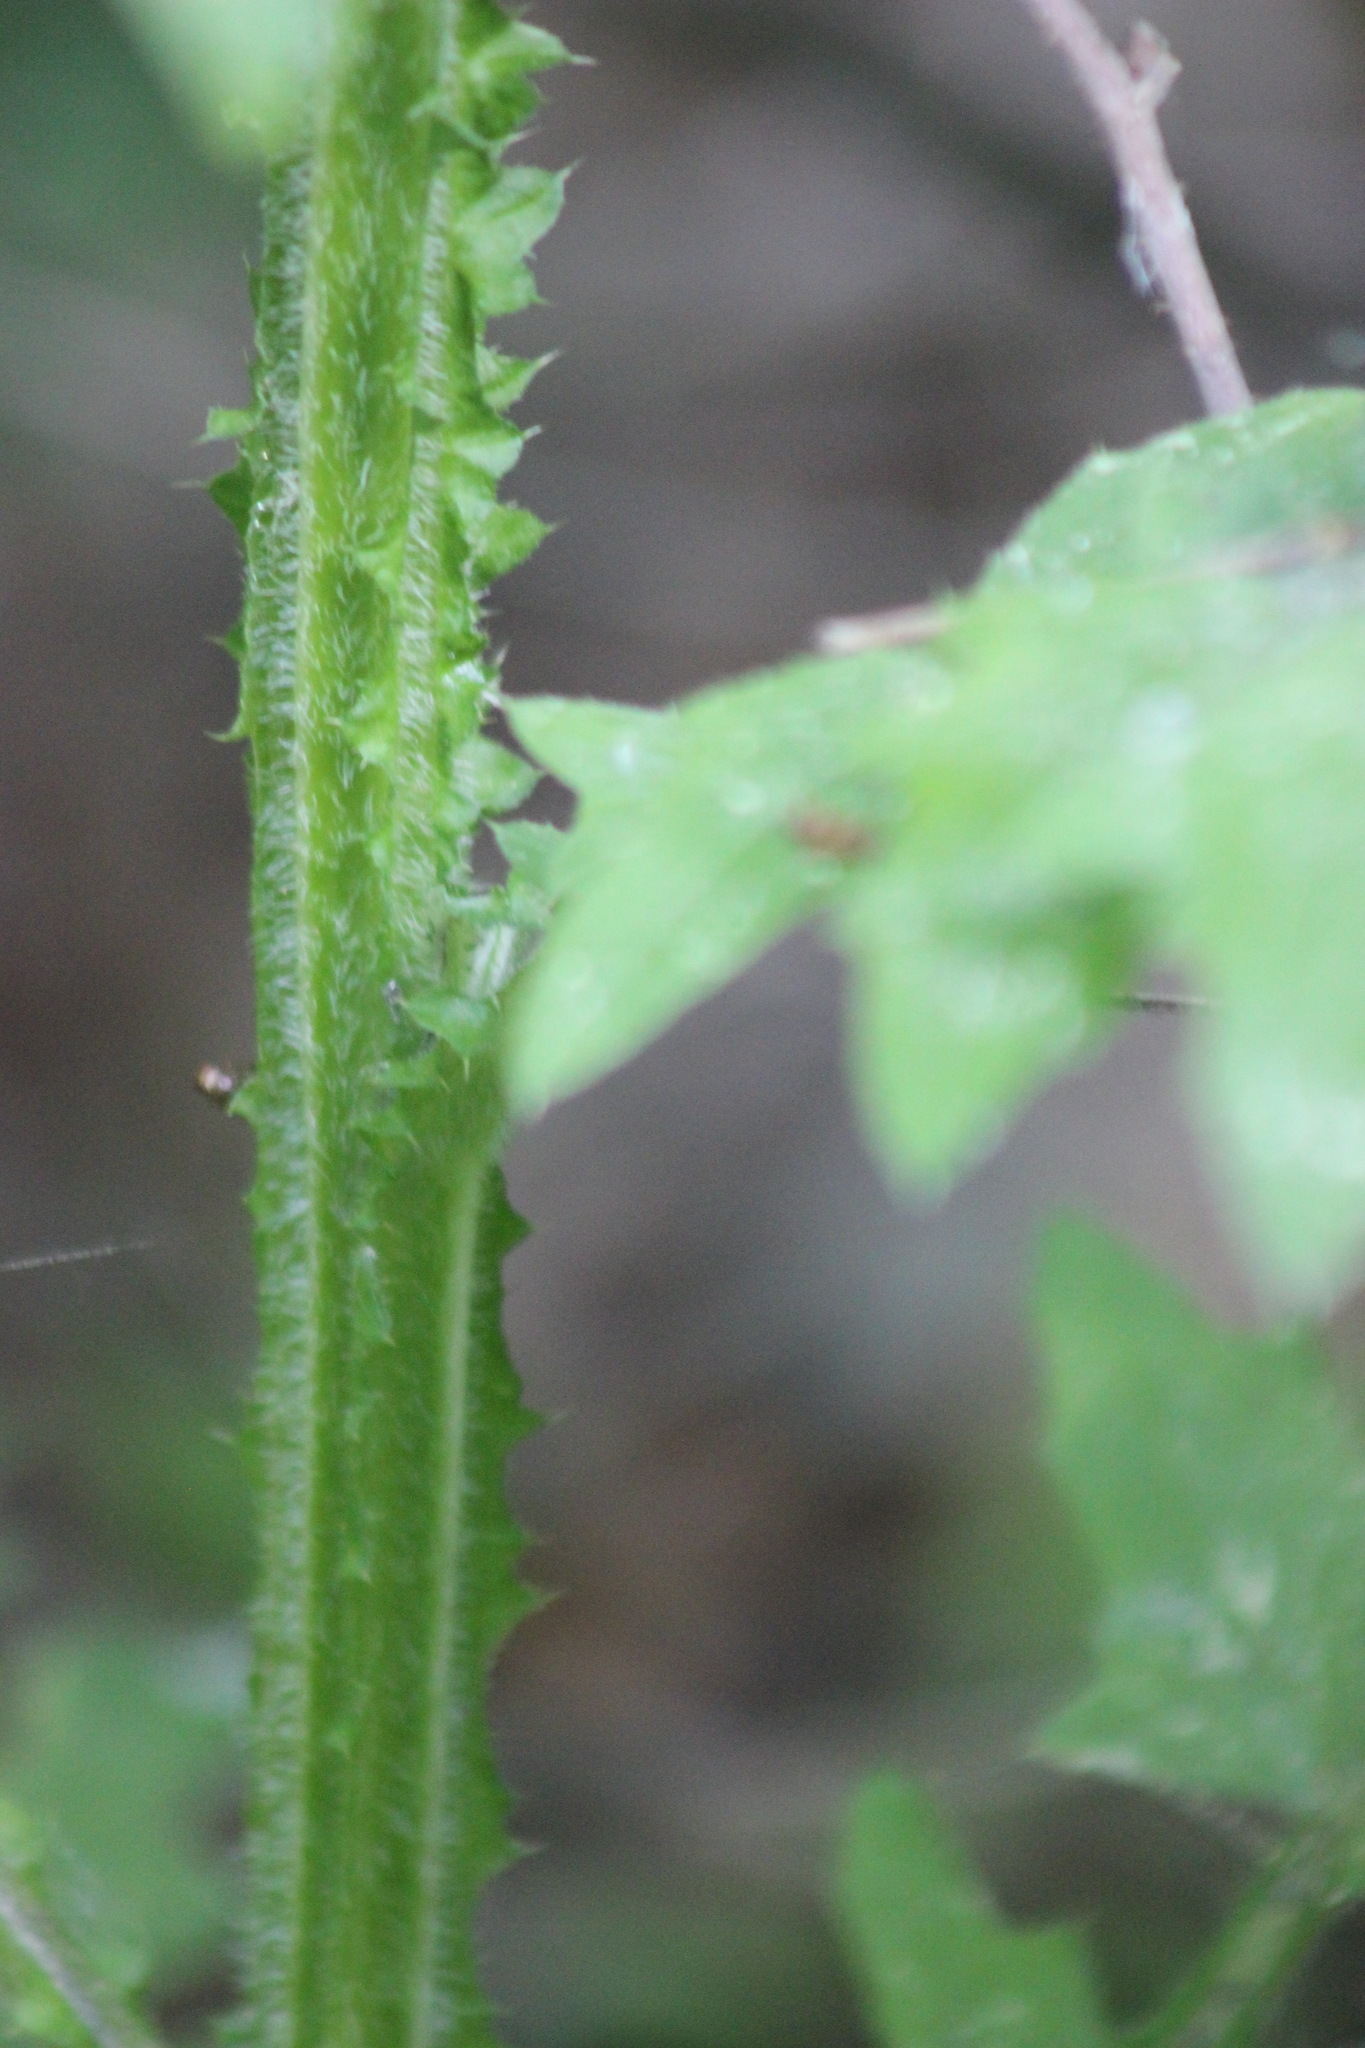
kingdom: Plantae
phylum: Tracheophyta
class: Magnoliopsida
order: Asterales
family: Asteraceae
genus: Carduus
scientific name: Carduus crispus
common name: Welted thistle
